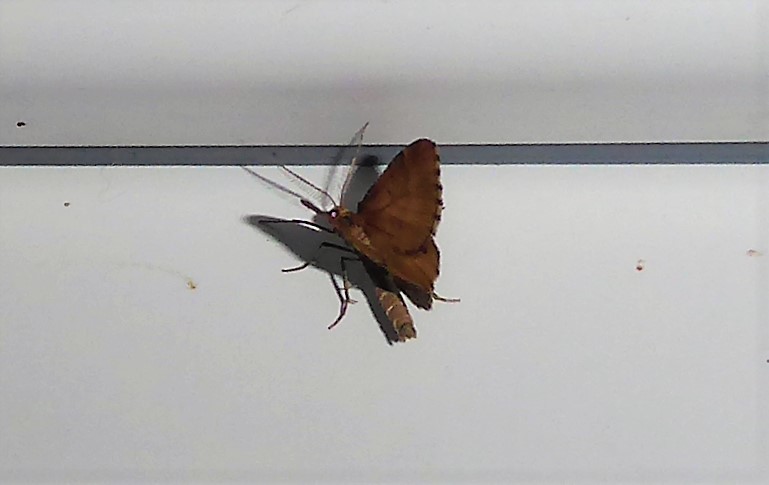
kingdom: Animalia
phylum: Arthropoda
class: Insecta
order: Lepidoptera
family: Geometridae
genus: Asaphodes
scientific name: Asaphodes aegrota
